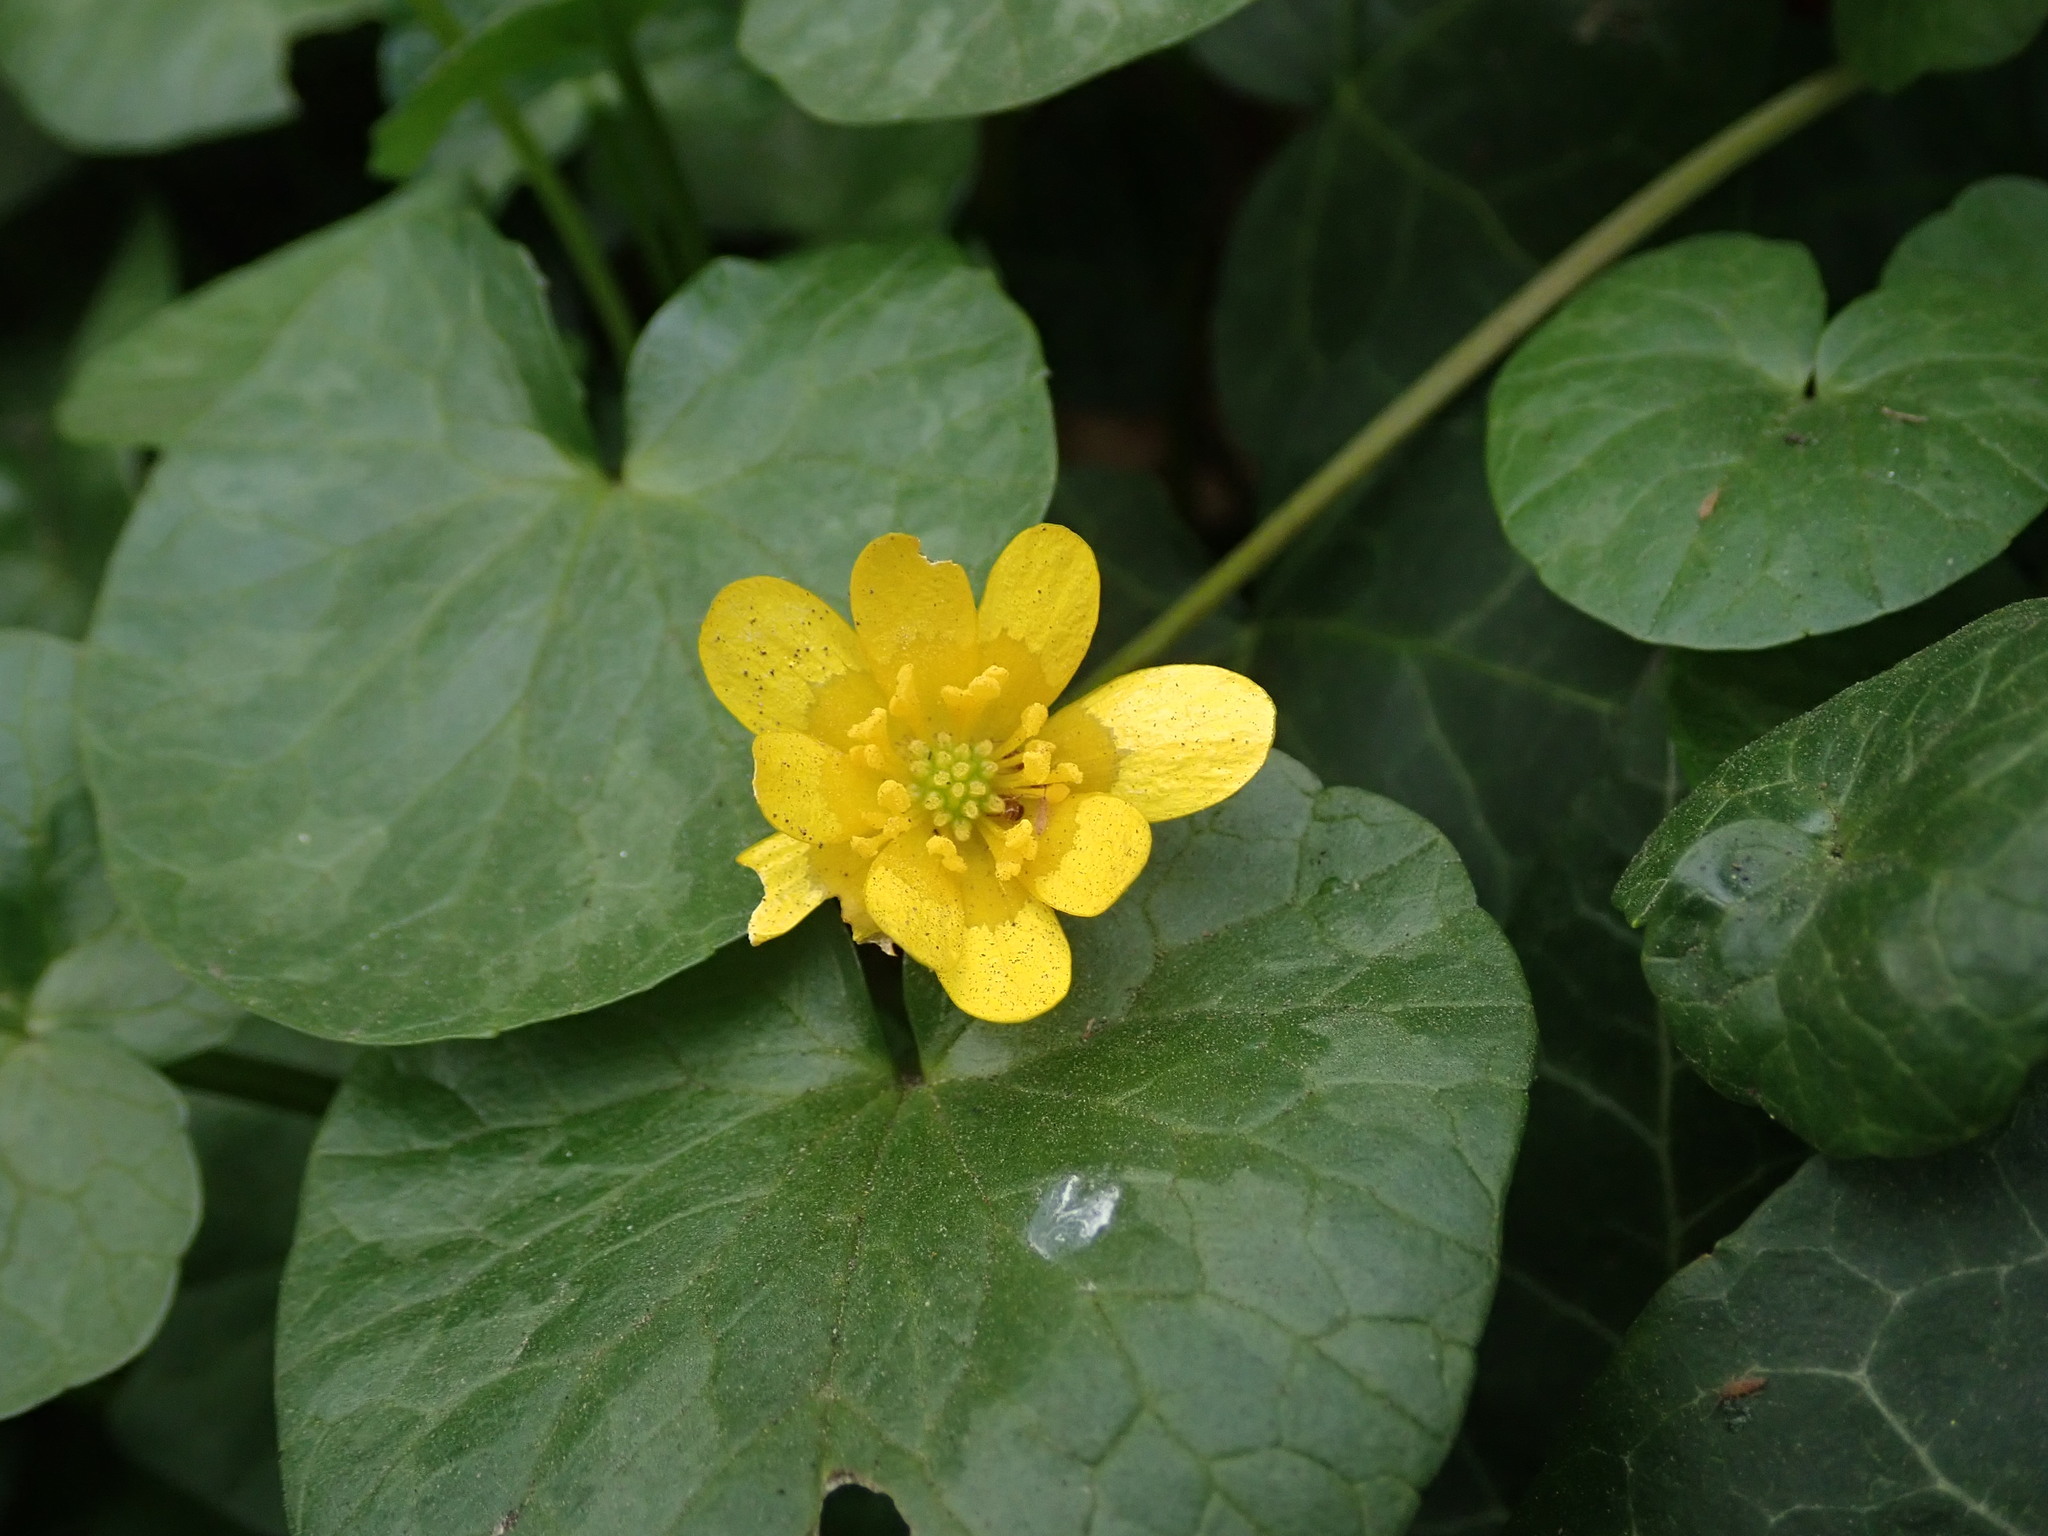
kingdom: Plantae
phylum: Tracheophyta
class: Magnoliopsida
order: Ranunculales
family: Ranunculaceae
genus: Ficaria
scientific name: Ficaria verna
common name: Lesser celandine
